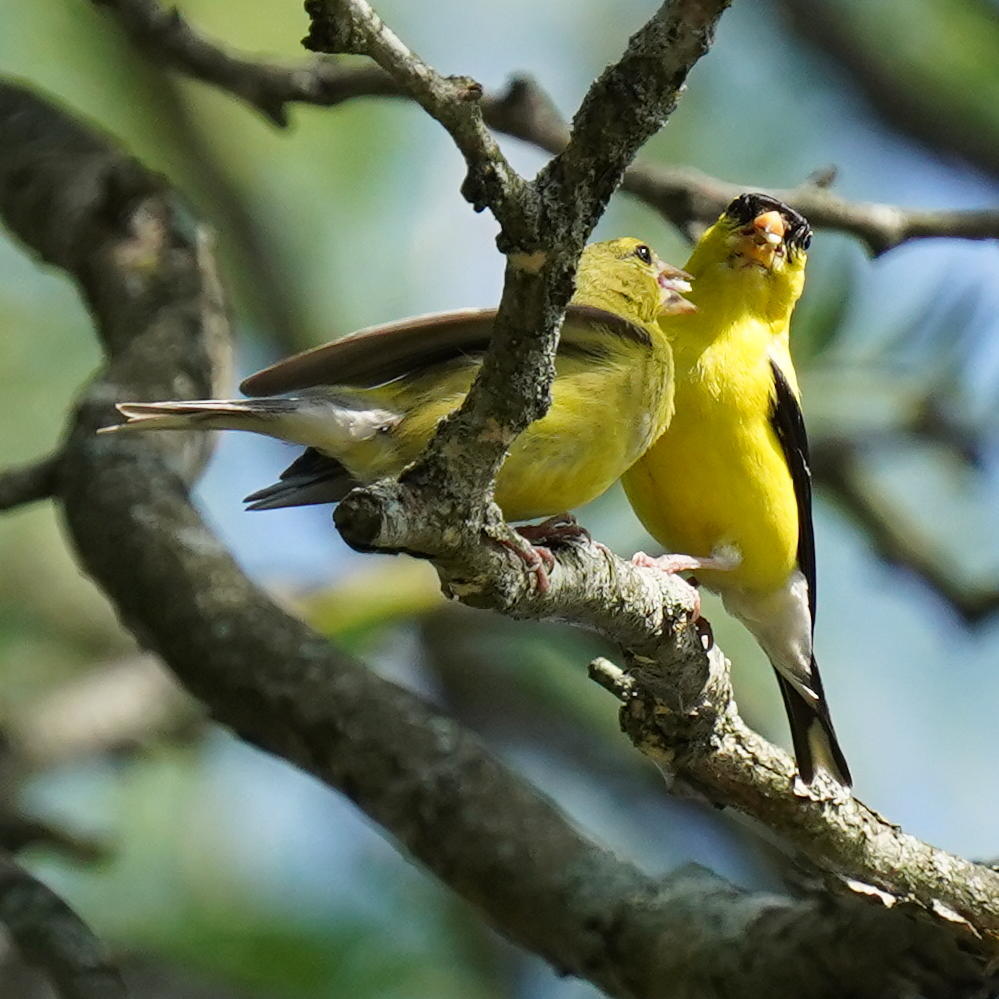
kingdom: Animalia
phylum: Chordata
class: Aves
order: Passeriformes
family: Fringillidae
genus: Spinus
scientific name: Spinus tristis
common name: American goldfinch
